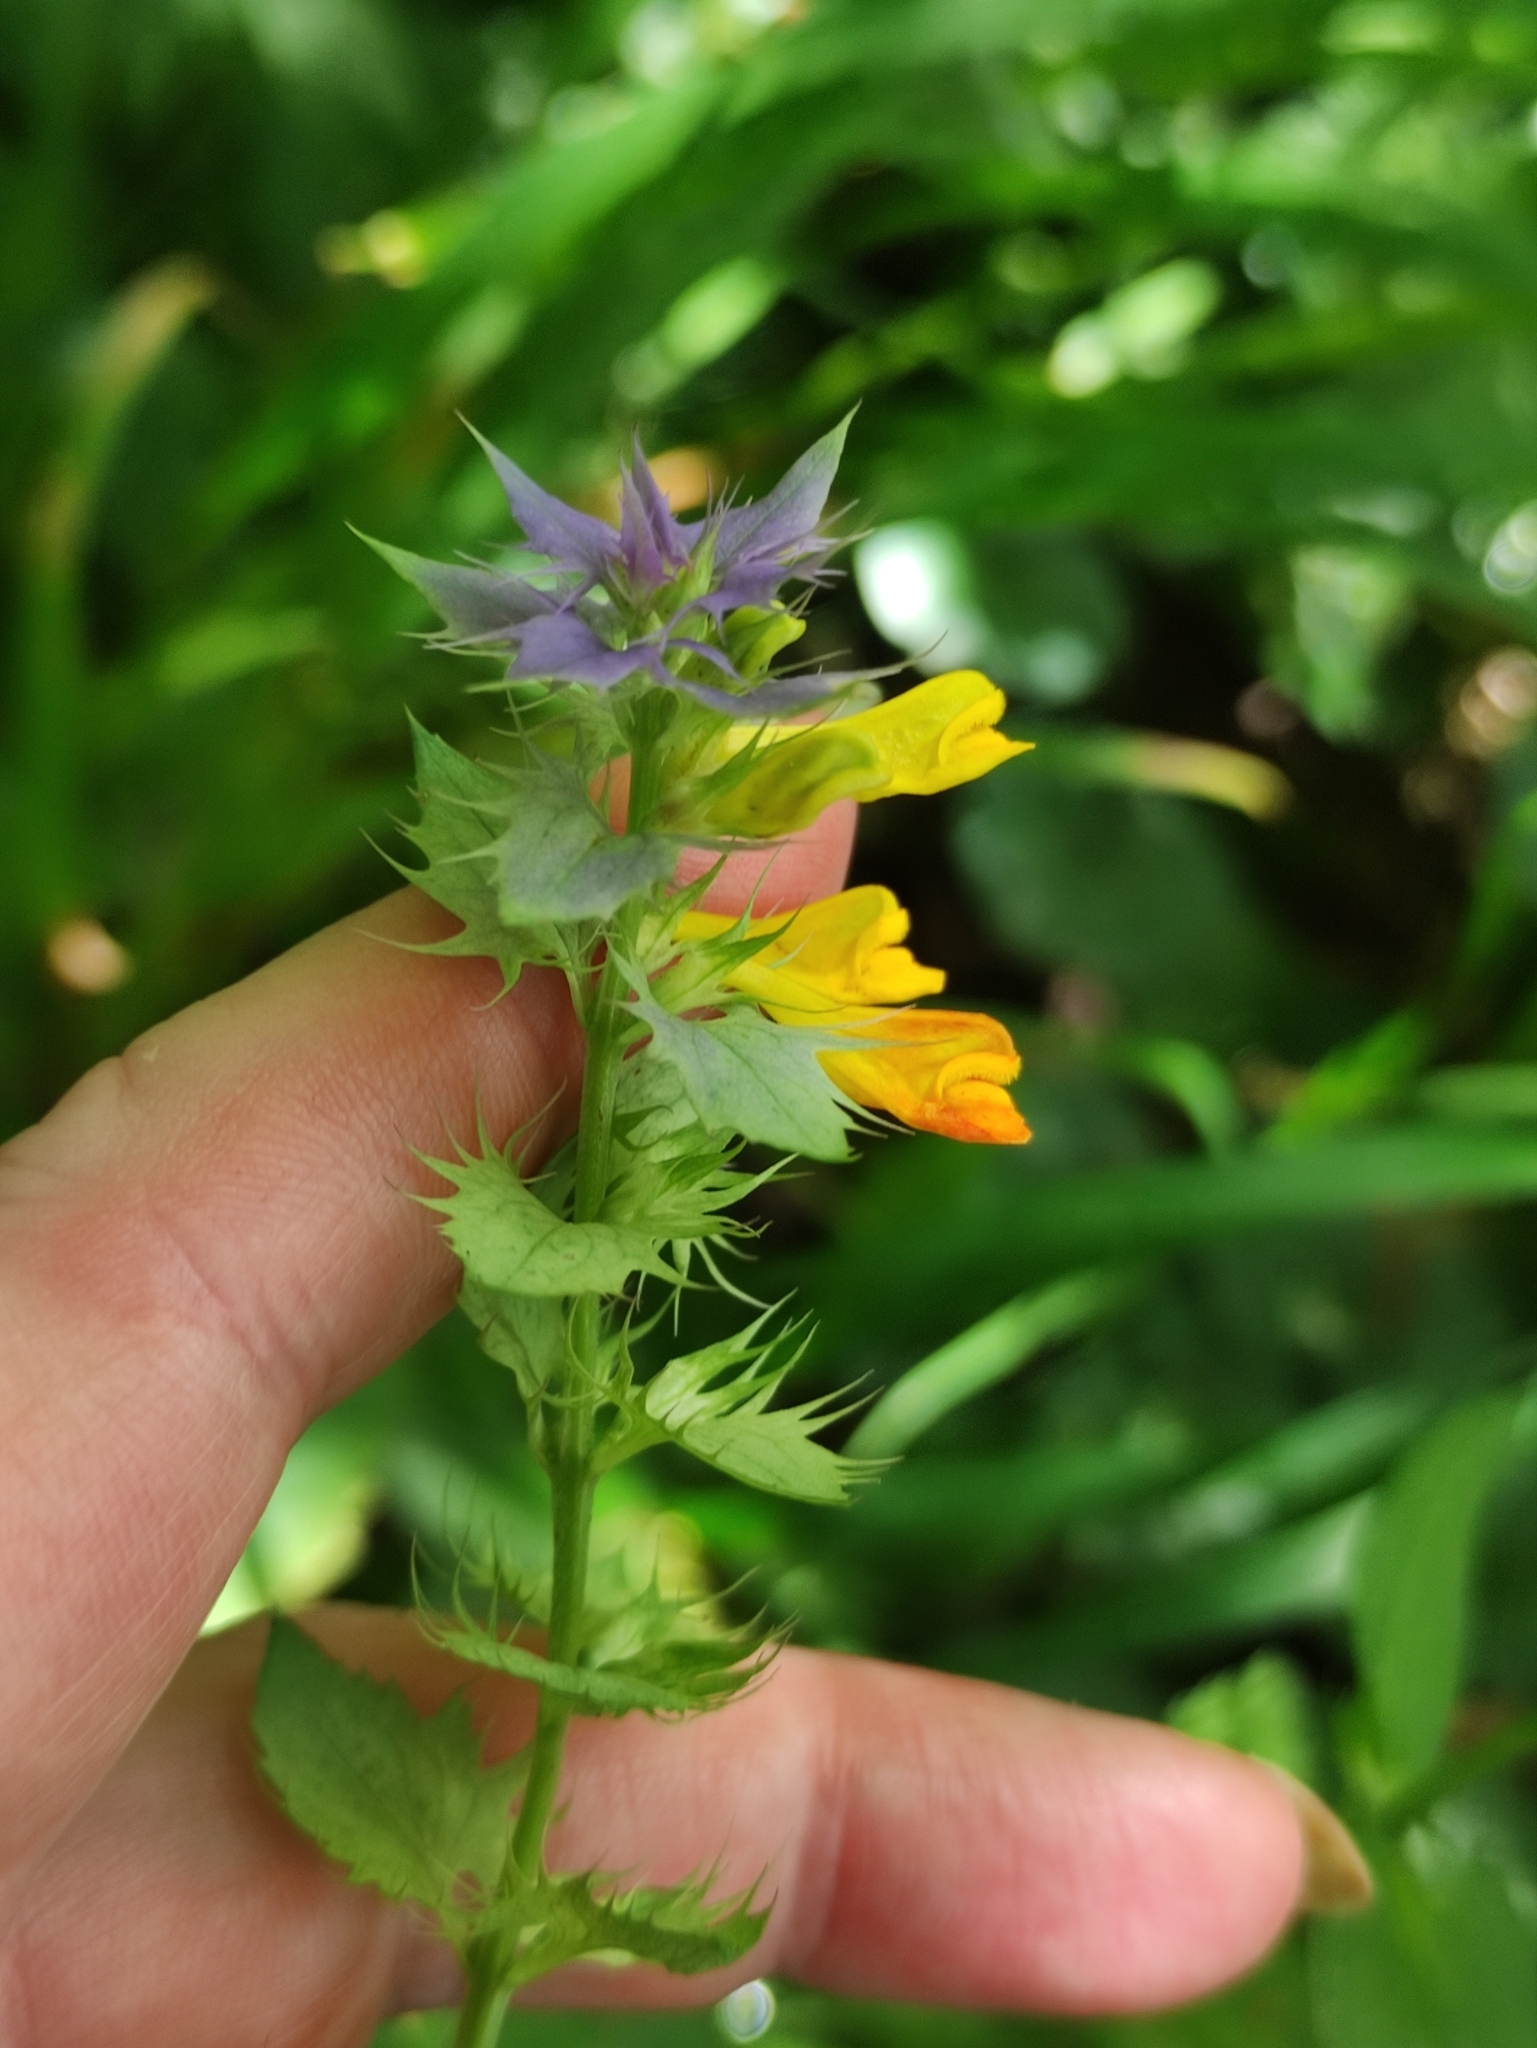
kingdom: Plantae
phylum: Tracheophyta
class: Magnoliopsida
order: Lamiales
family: Orobanchaceae
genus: Melampyrum
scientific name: Melampyrum nemorosum
